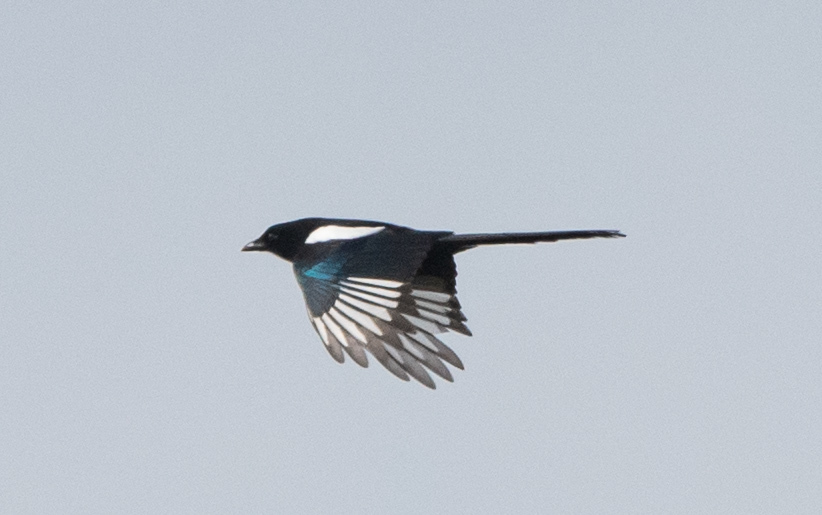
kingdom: Animalia
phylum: Chordata
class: Aves
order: Passeriformes
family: Corvidae
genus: Pica
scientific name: Pica pica
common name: Eurasian magpie
